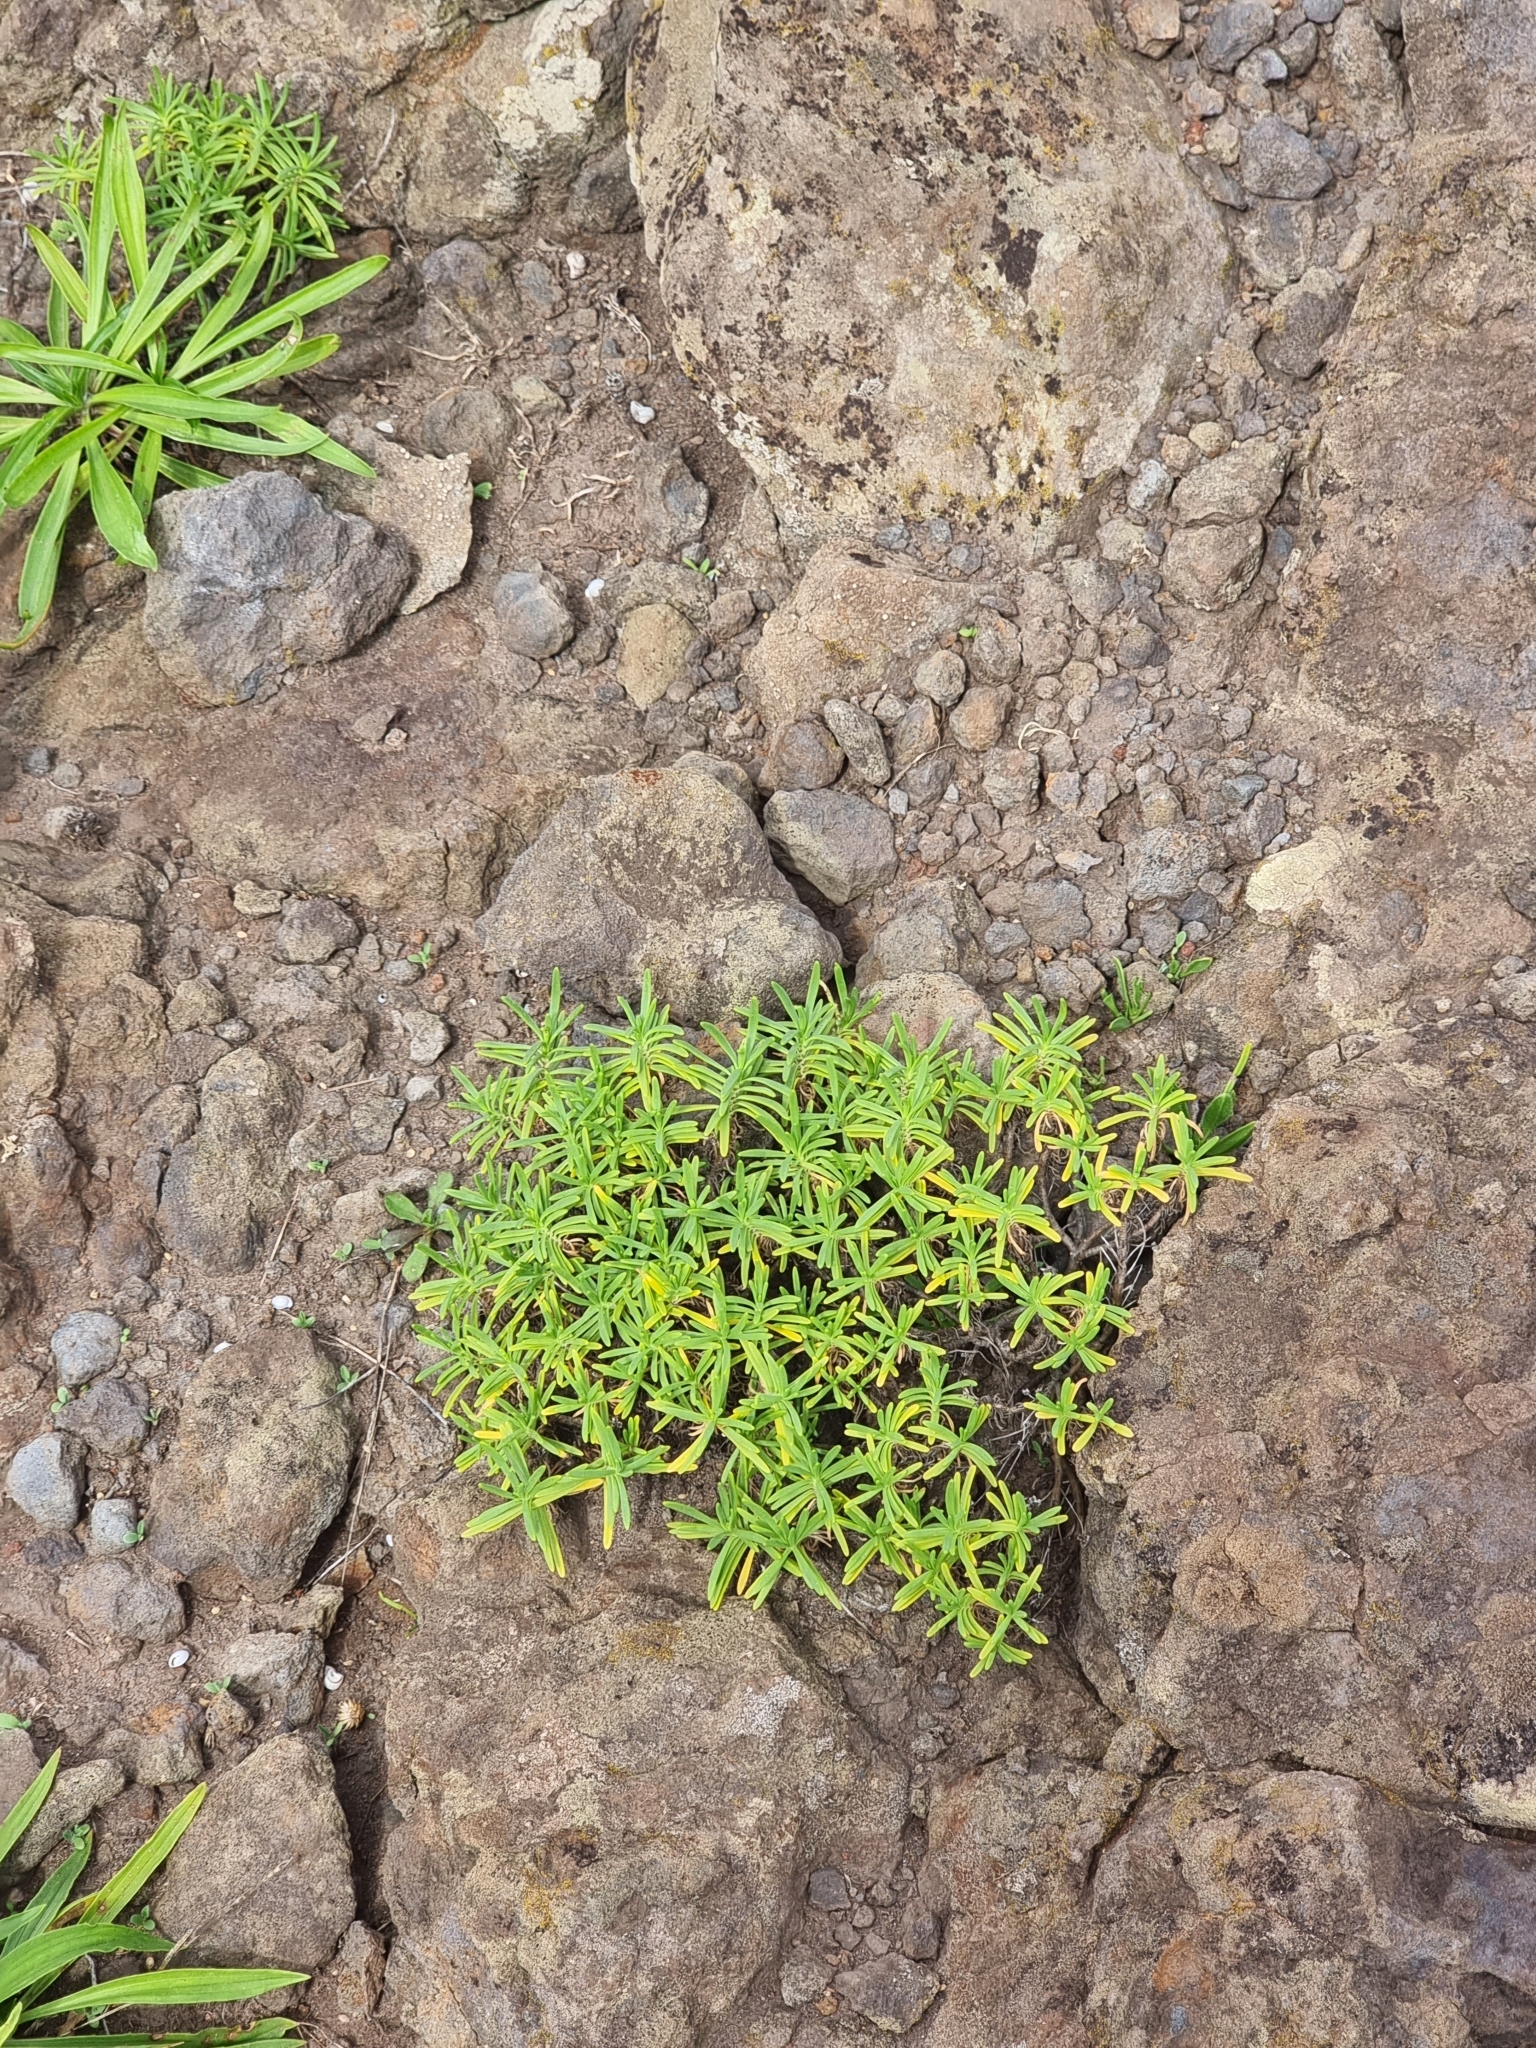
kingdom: Plantae
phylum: Tracheophyta
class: Magnoliopsida
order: Lamiales
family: Plantaginaceae
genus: Plantago
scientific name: Plantago arborescens
